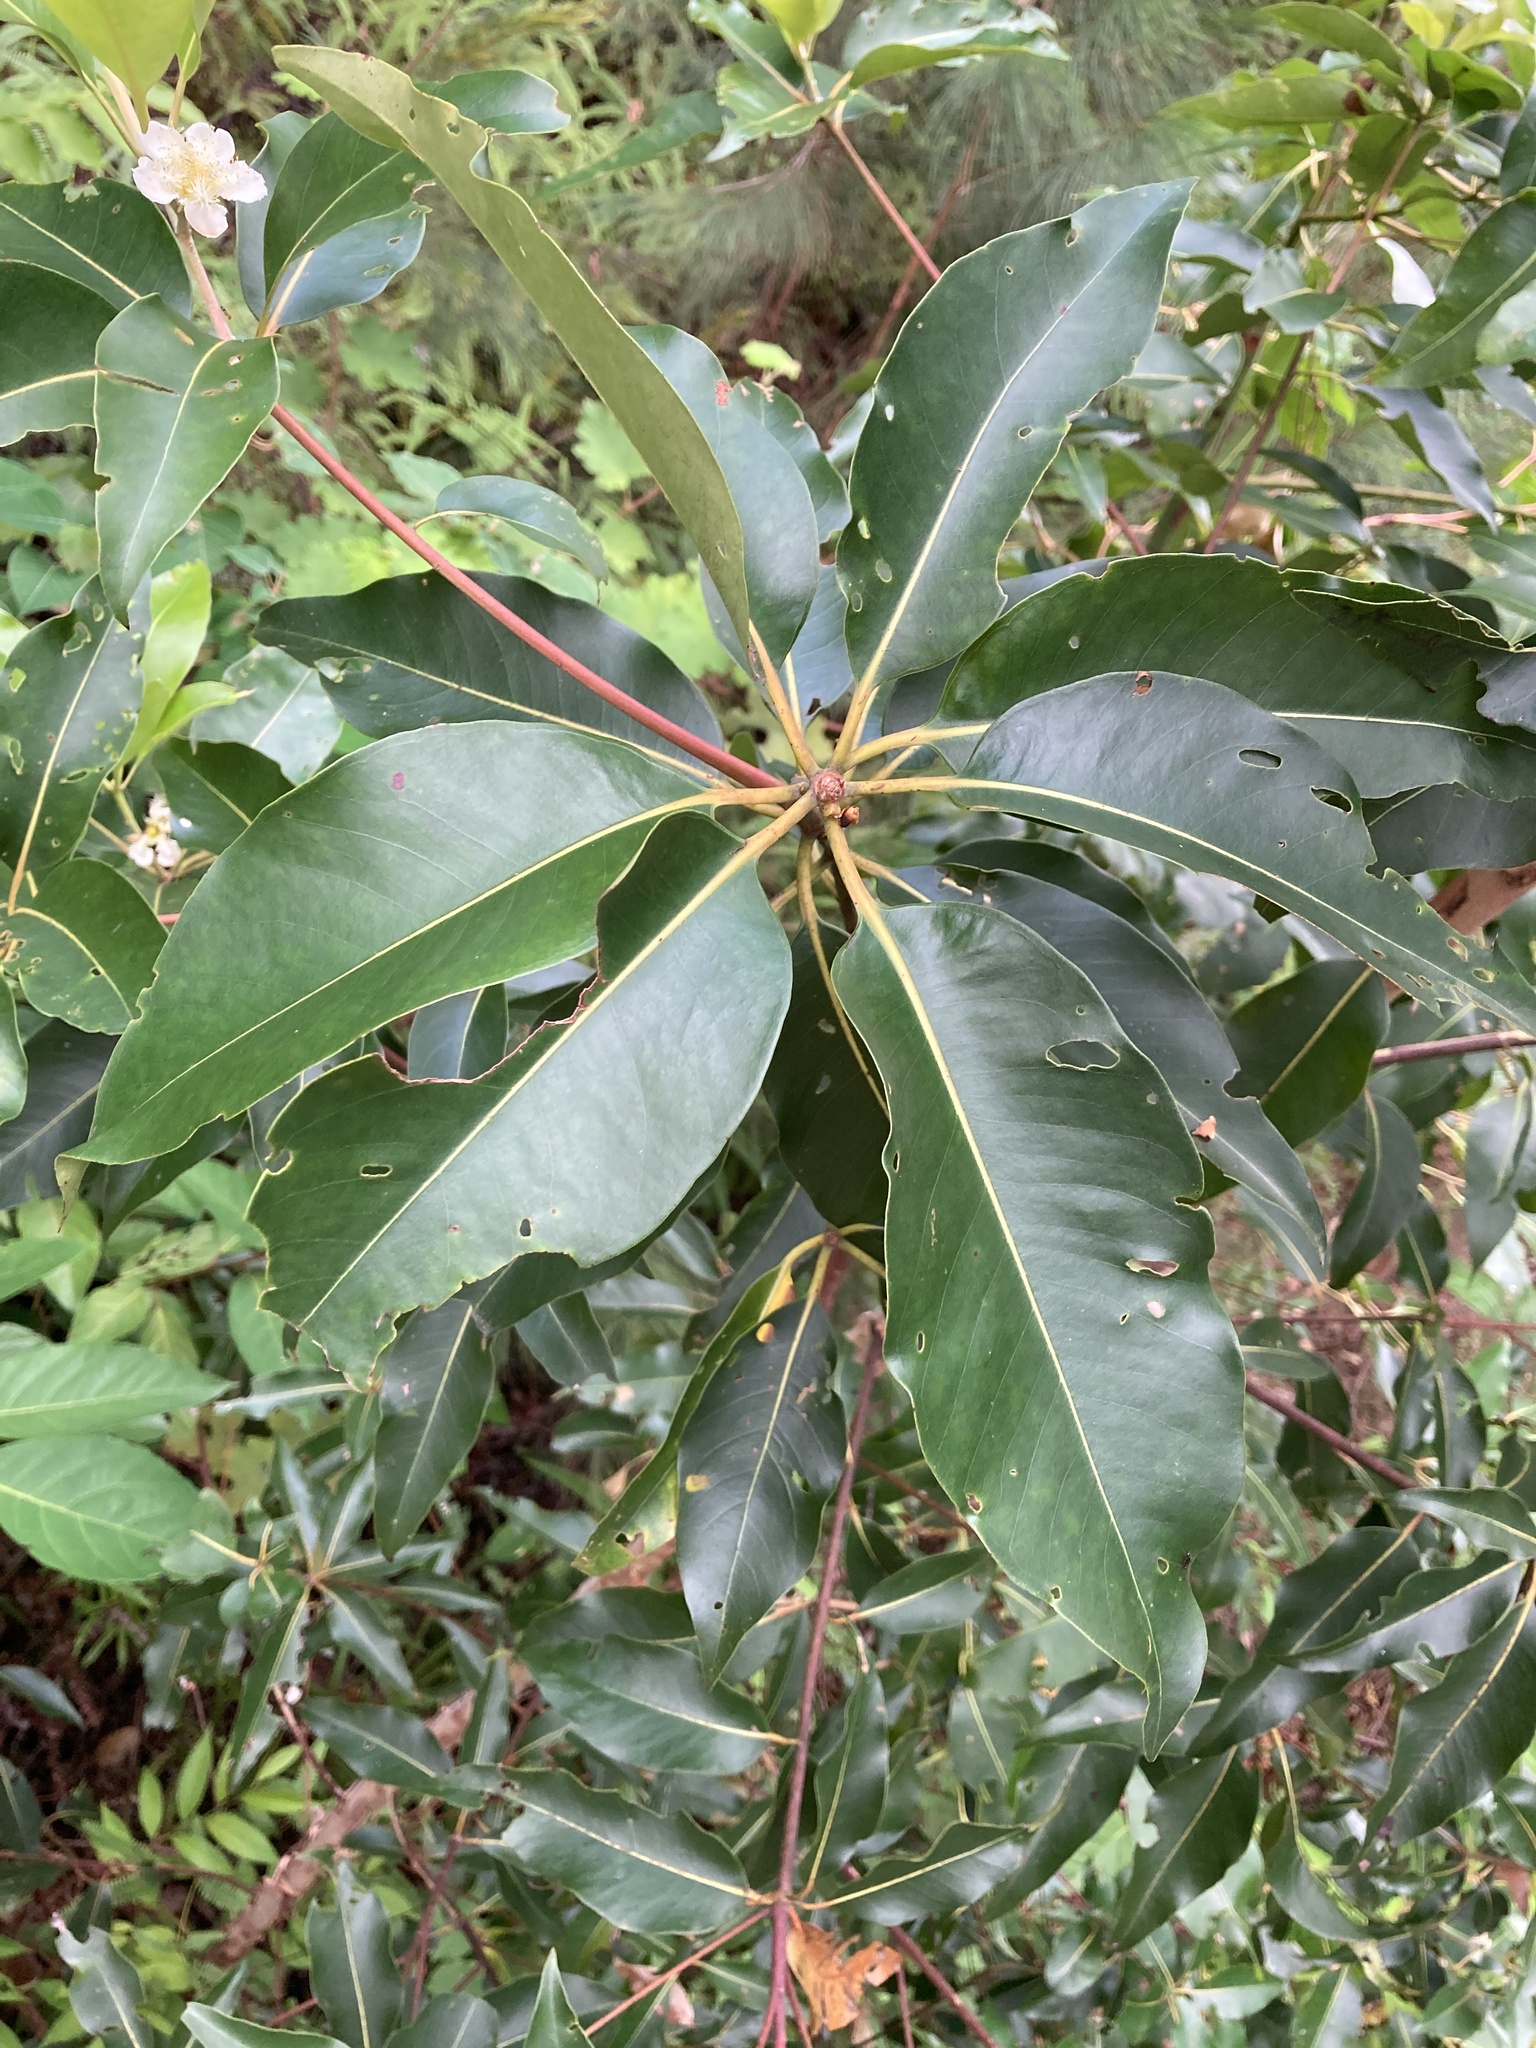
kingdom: Plantae
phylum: Tracheophyta
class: Magnoliopsida
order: Myrtales
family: Myrtaceae
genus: Lophostemon
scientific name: Lophostemon confertus
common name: Brisbane box
